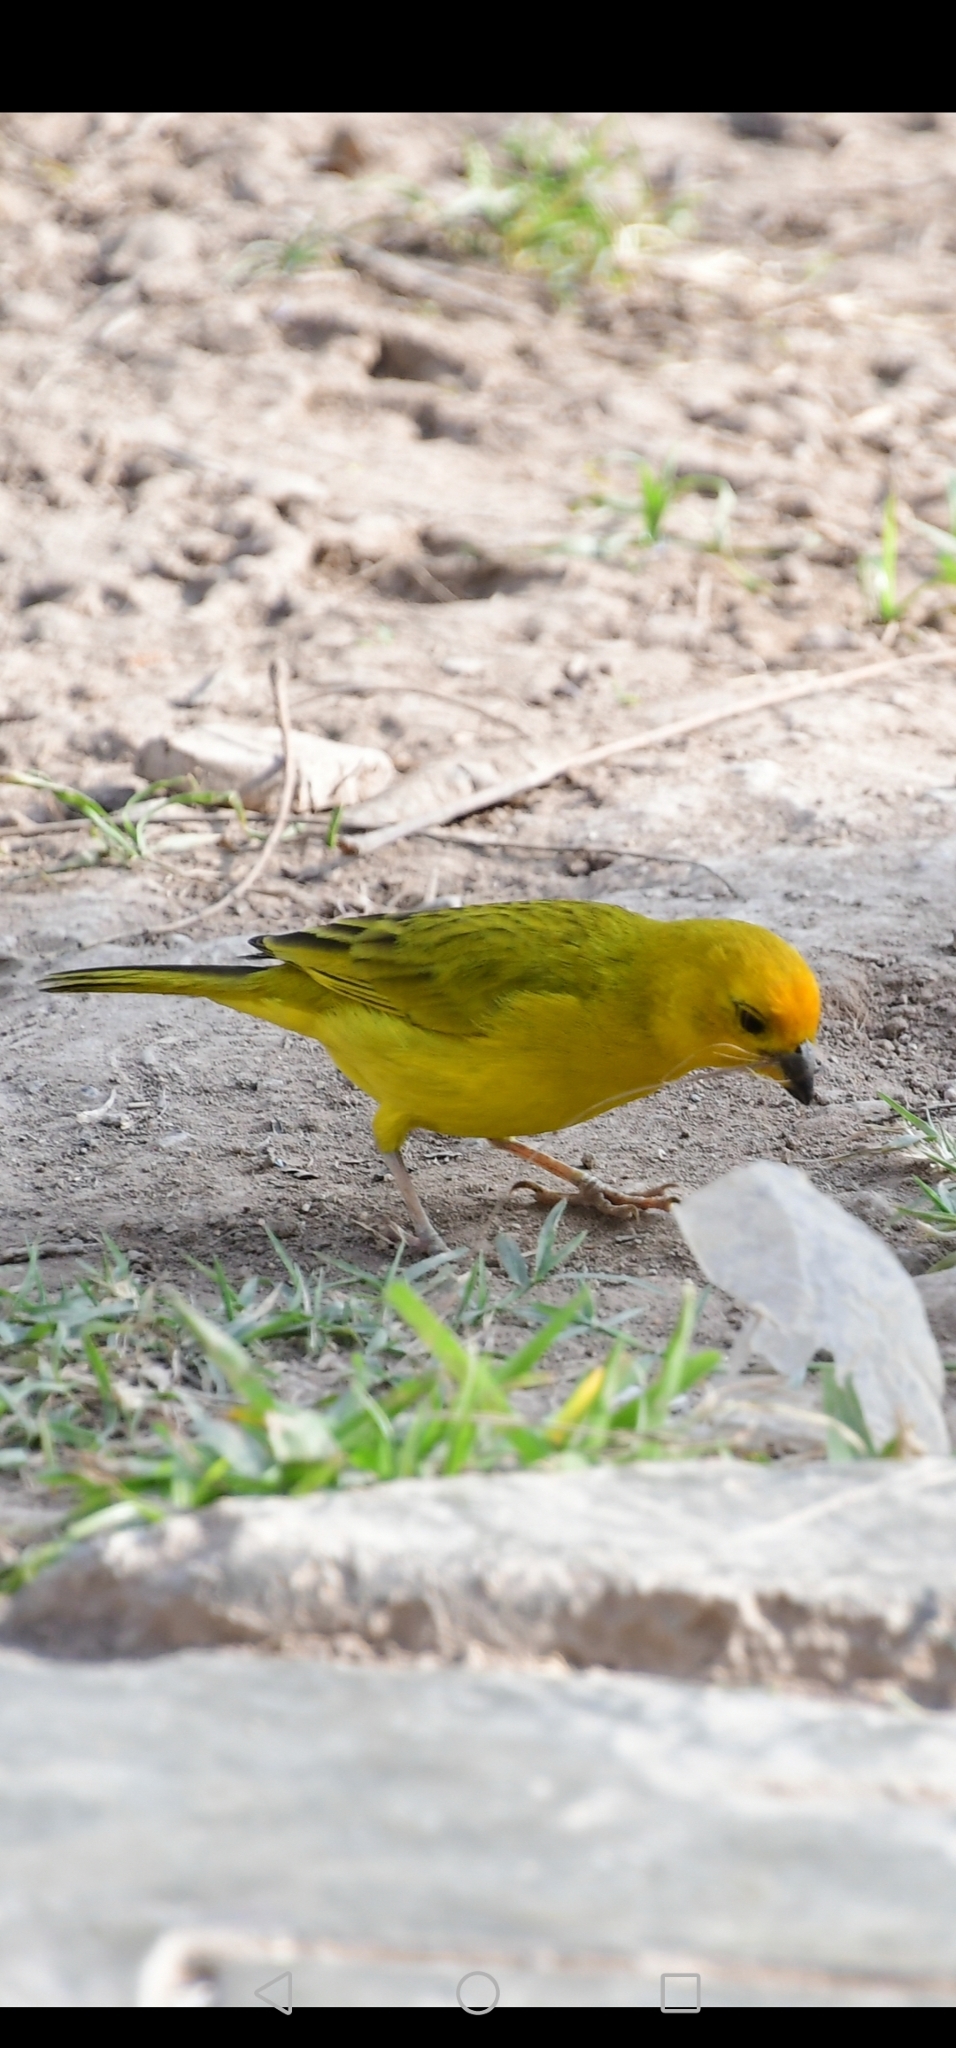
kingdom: Animalia
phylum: Chordata
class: Aves
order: Passeriformes
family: Thraupidae
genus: Sicalis
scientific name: Sicalis flaveola
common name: Saffron finch
